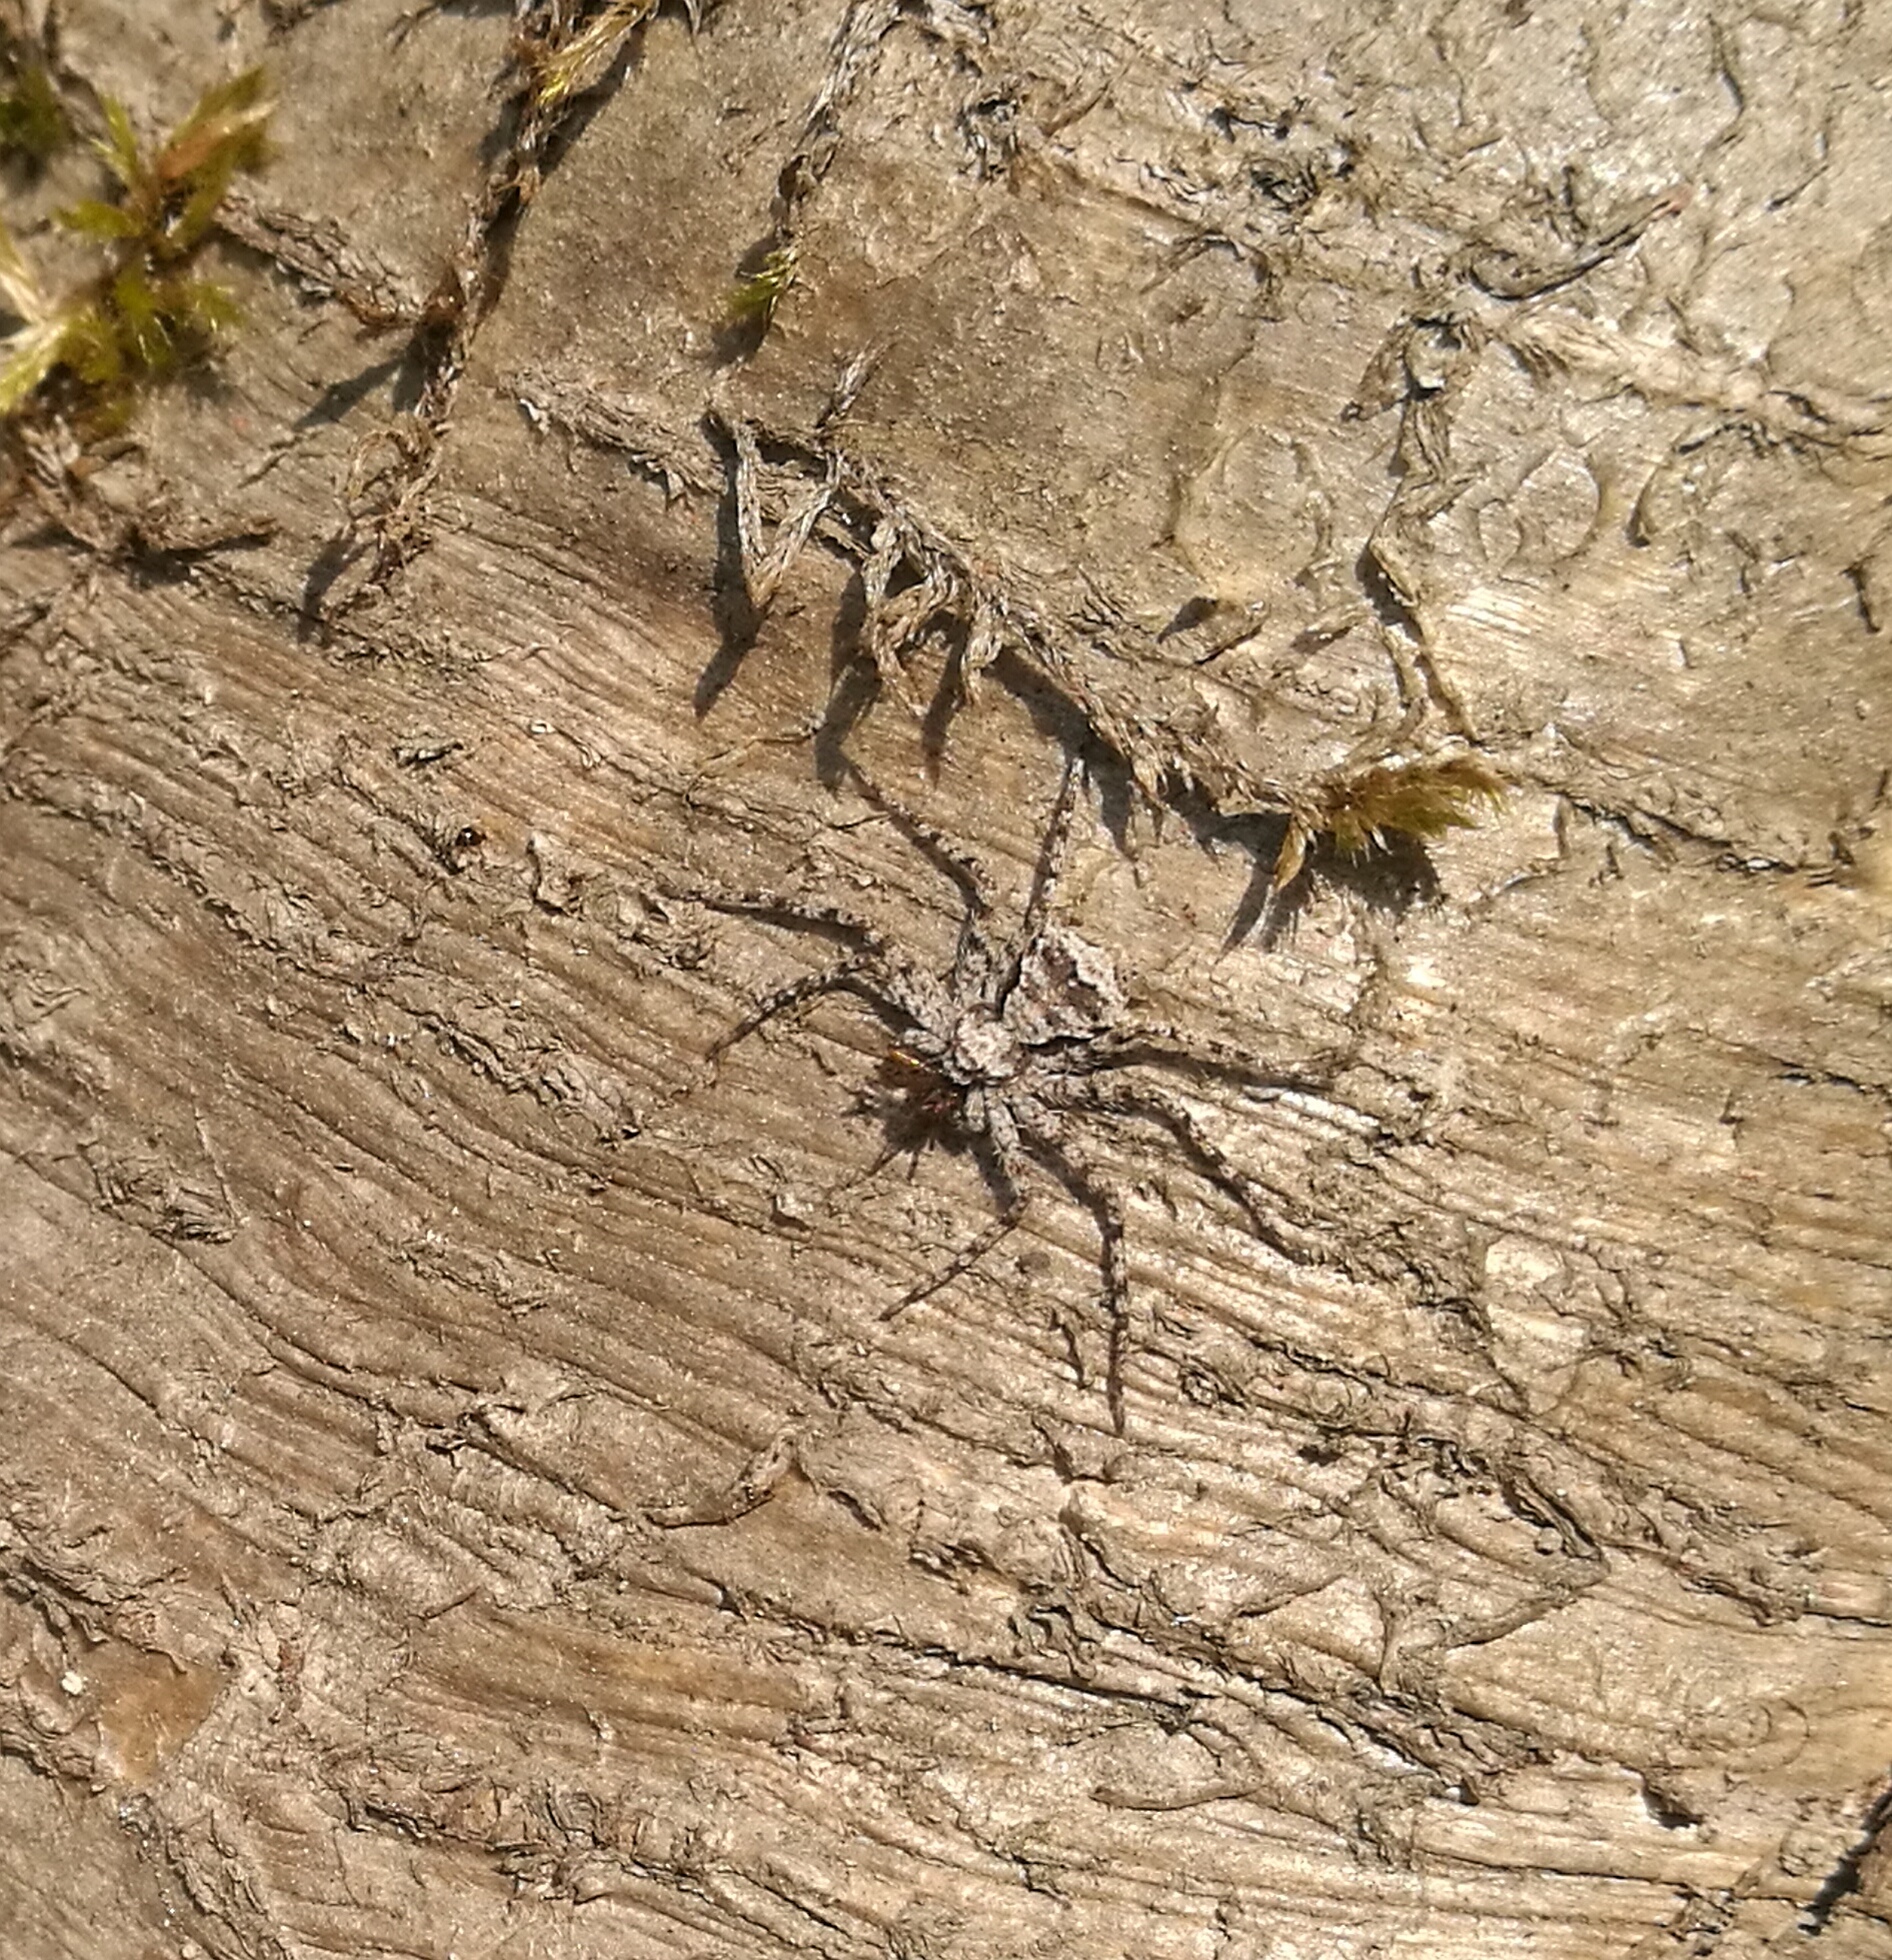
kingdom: Animalia
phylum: Arthropoda
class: Arachnida
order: Araneae
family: Philodromidae
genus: Philodromus
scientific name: Philodromus margaritatus
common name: Lichen running-spider
